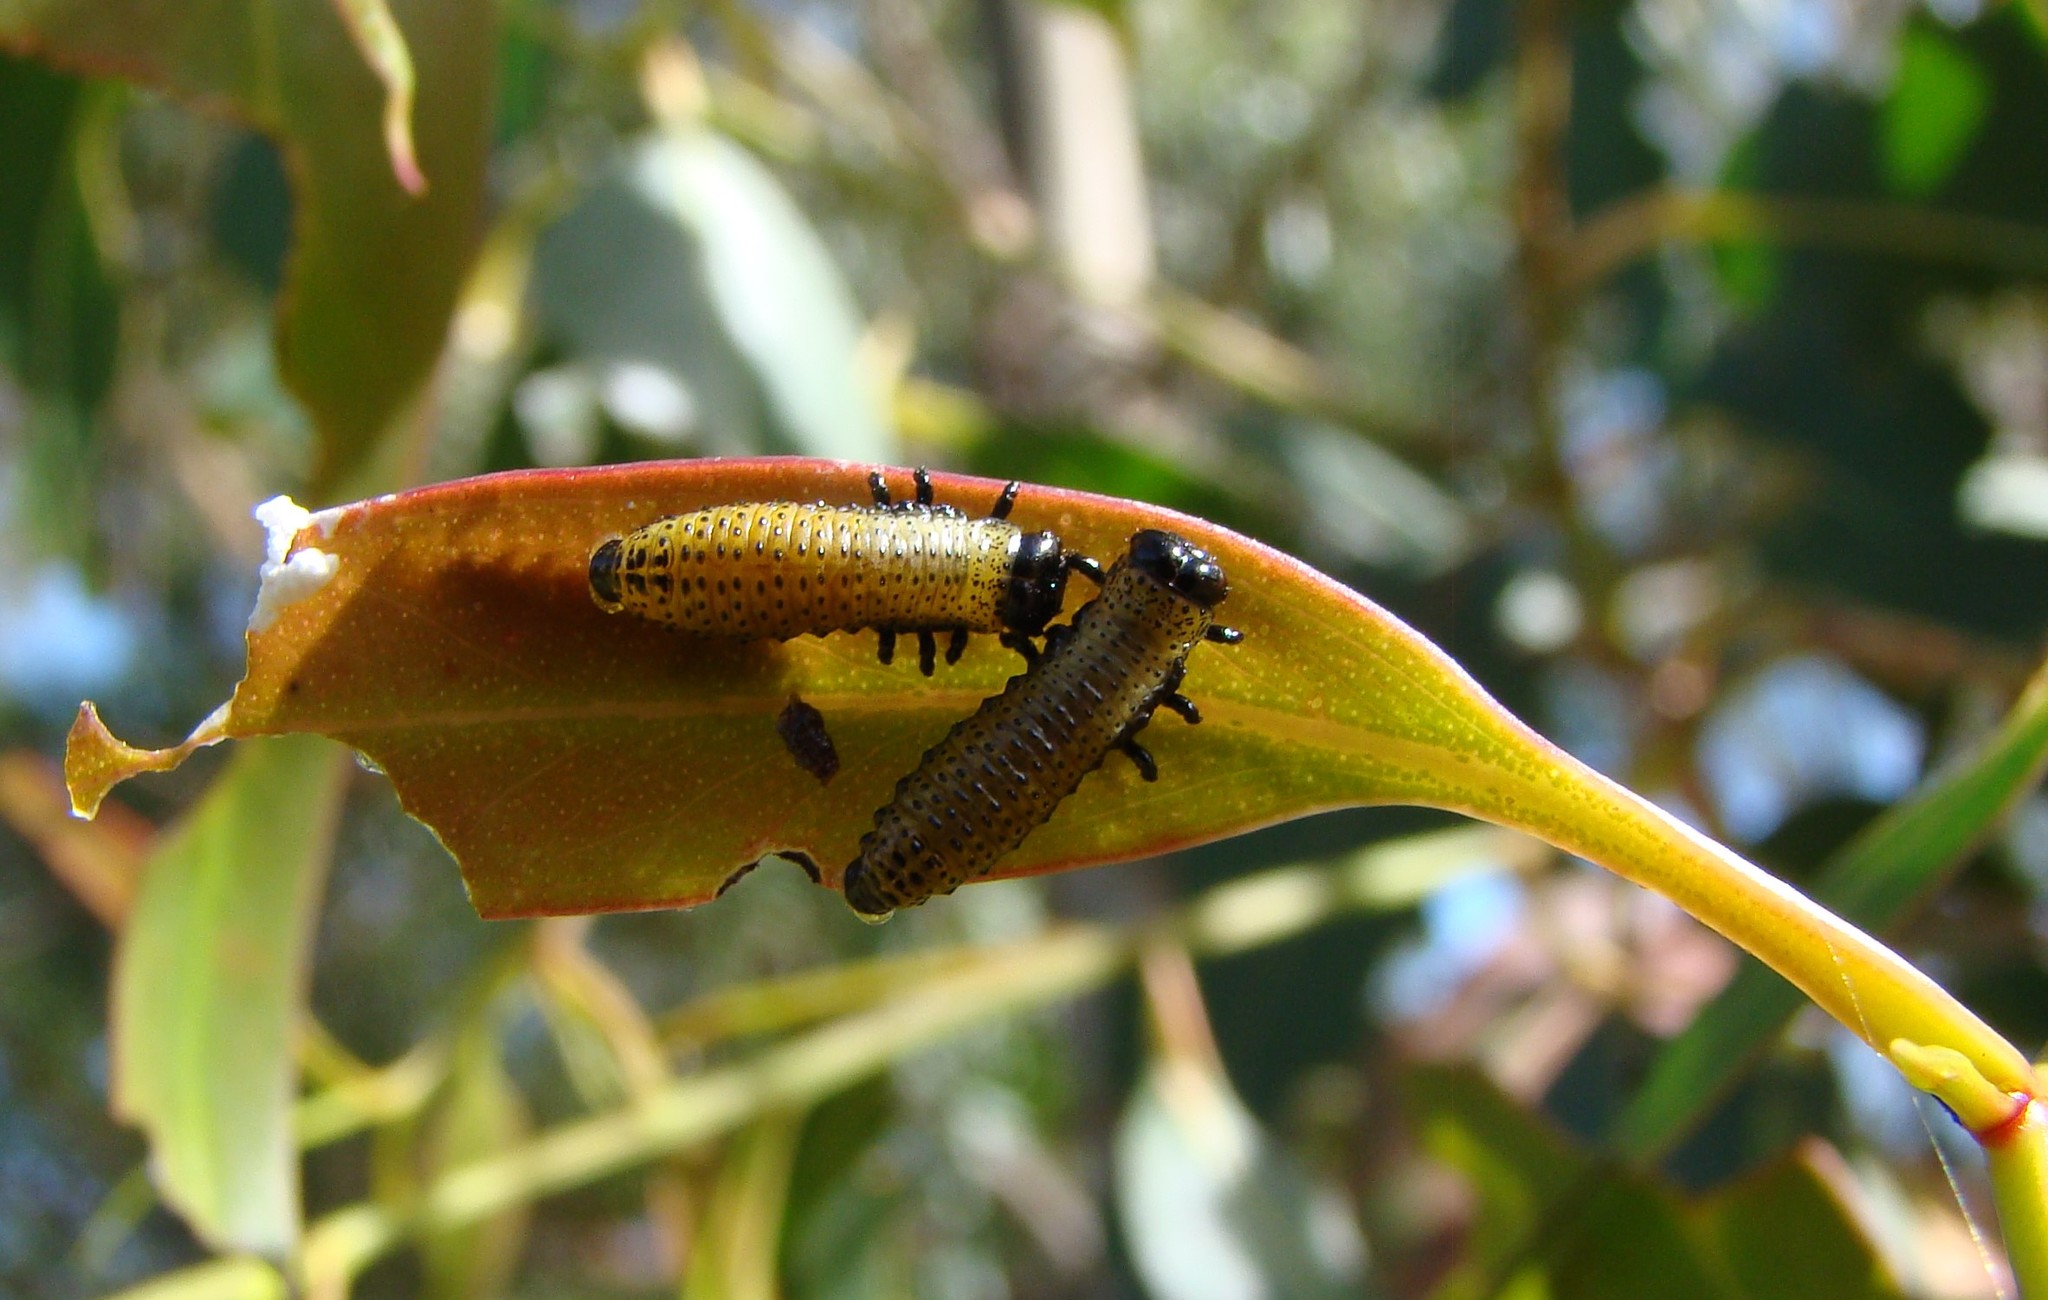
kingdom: Animalia
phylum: Arthropoda
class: Insecta
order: Coleoptera
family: Chrysomelidae
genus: Paropsis
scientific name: Paropsis charybdis
